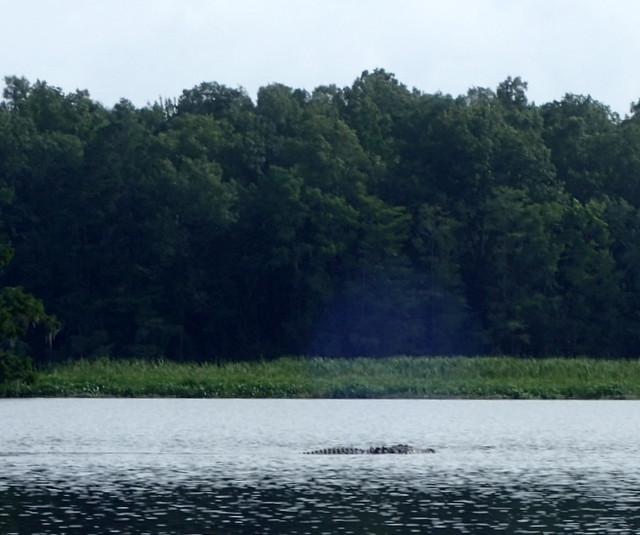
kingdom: Animalia
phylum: Chordata
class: Crocodylia
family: Alligatoridae
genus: Alligator
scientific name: Alligator mississippiensis
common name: American alligator
